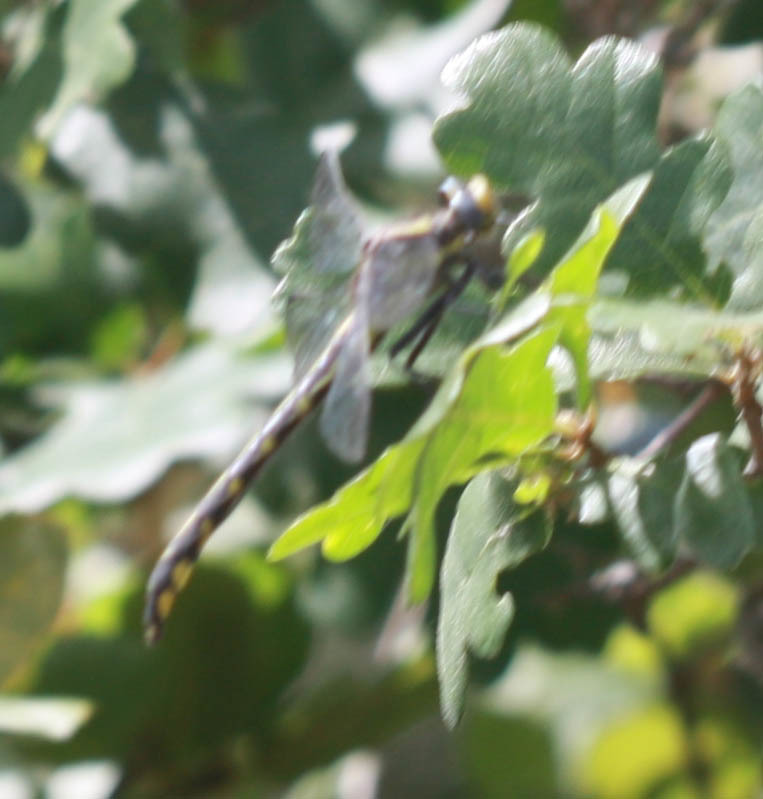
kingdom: Animalia
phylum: Arthropoda
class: Insecta
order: Odonata
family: Gomphidae
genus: Phanogomphus
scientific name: Phanogomphus kurilis
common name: Pacific clubtail
